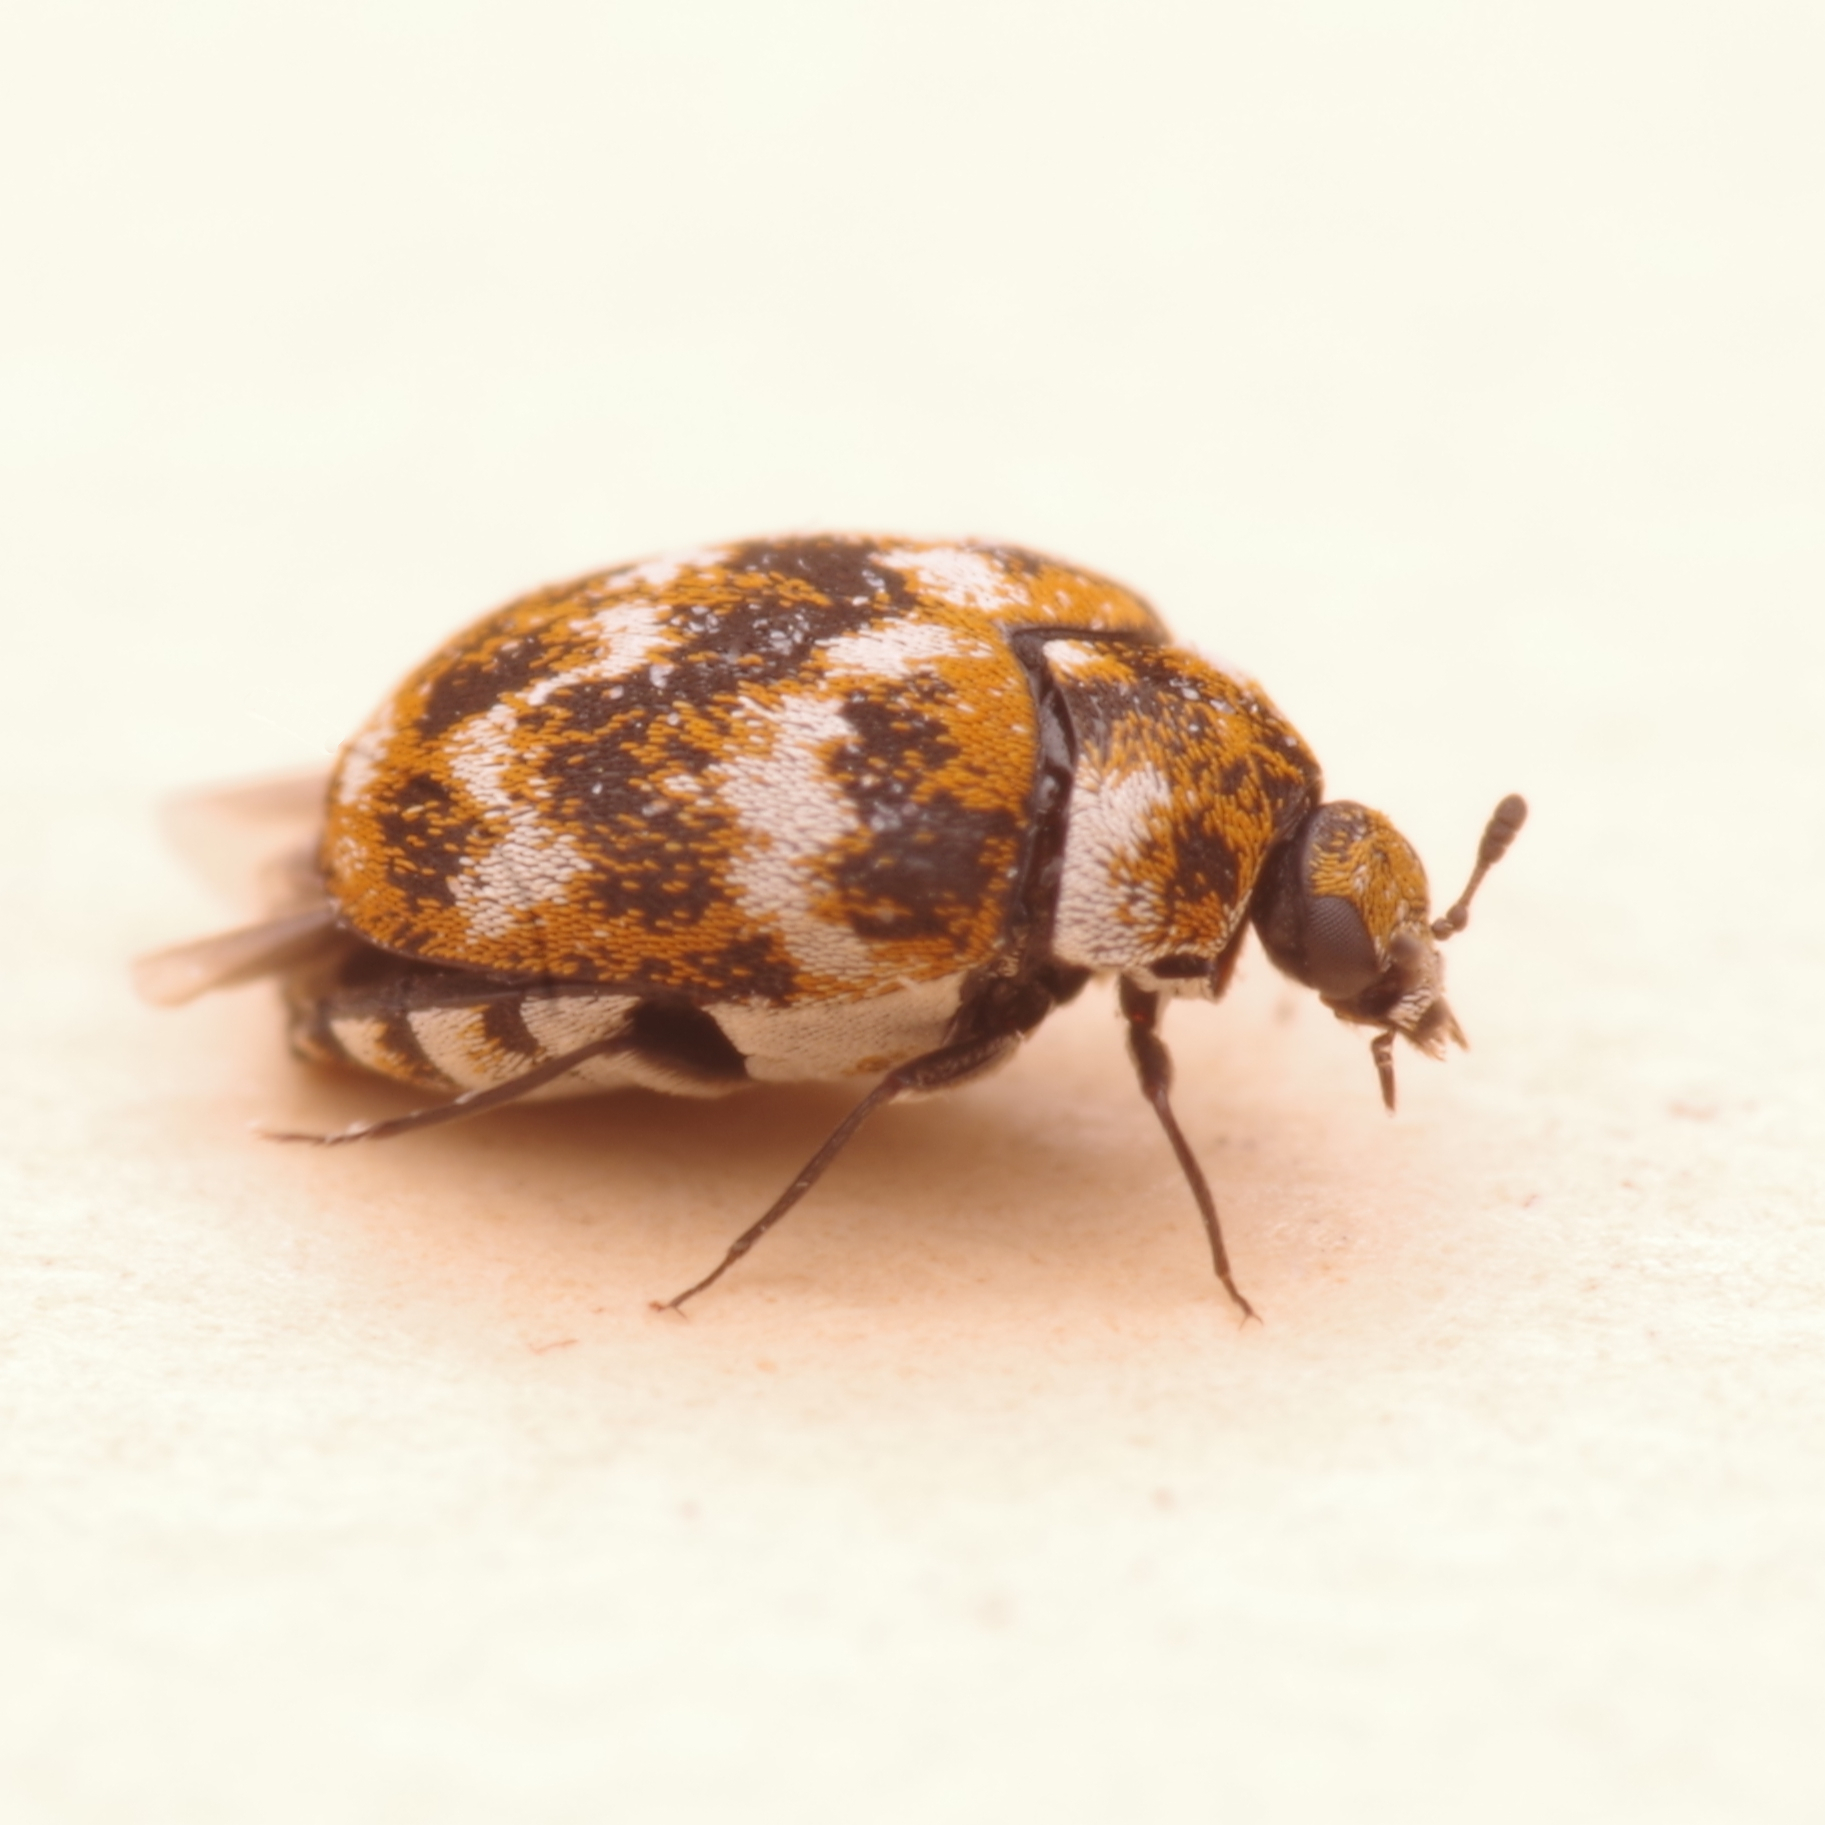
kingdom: Animalia
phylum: Arthropoda
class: Insecta
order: Coleoptera
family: Dermestidae
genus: Anthrenus
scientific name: Anthrenus verbasci
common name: Varied carpet beetle
